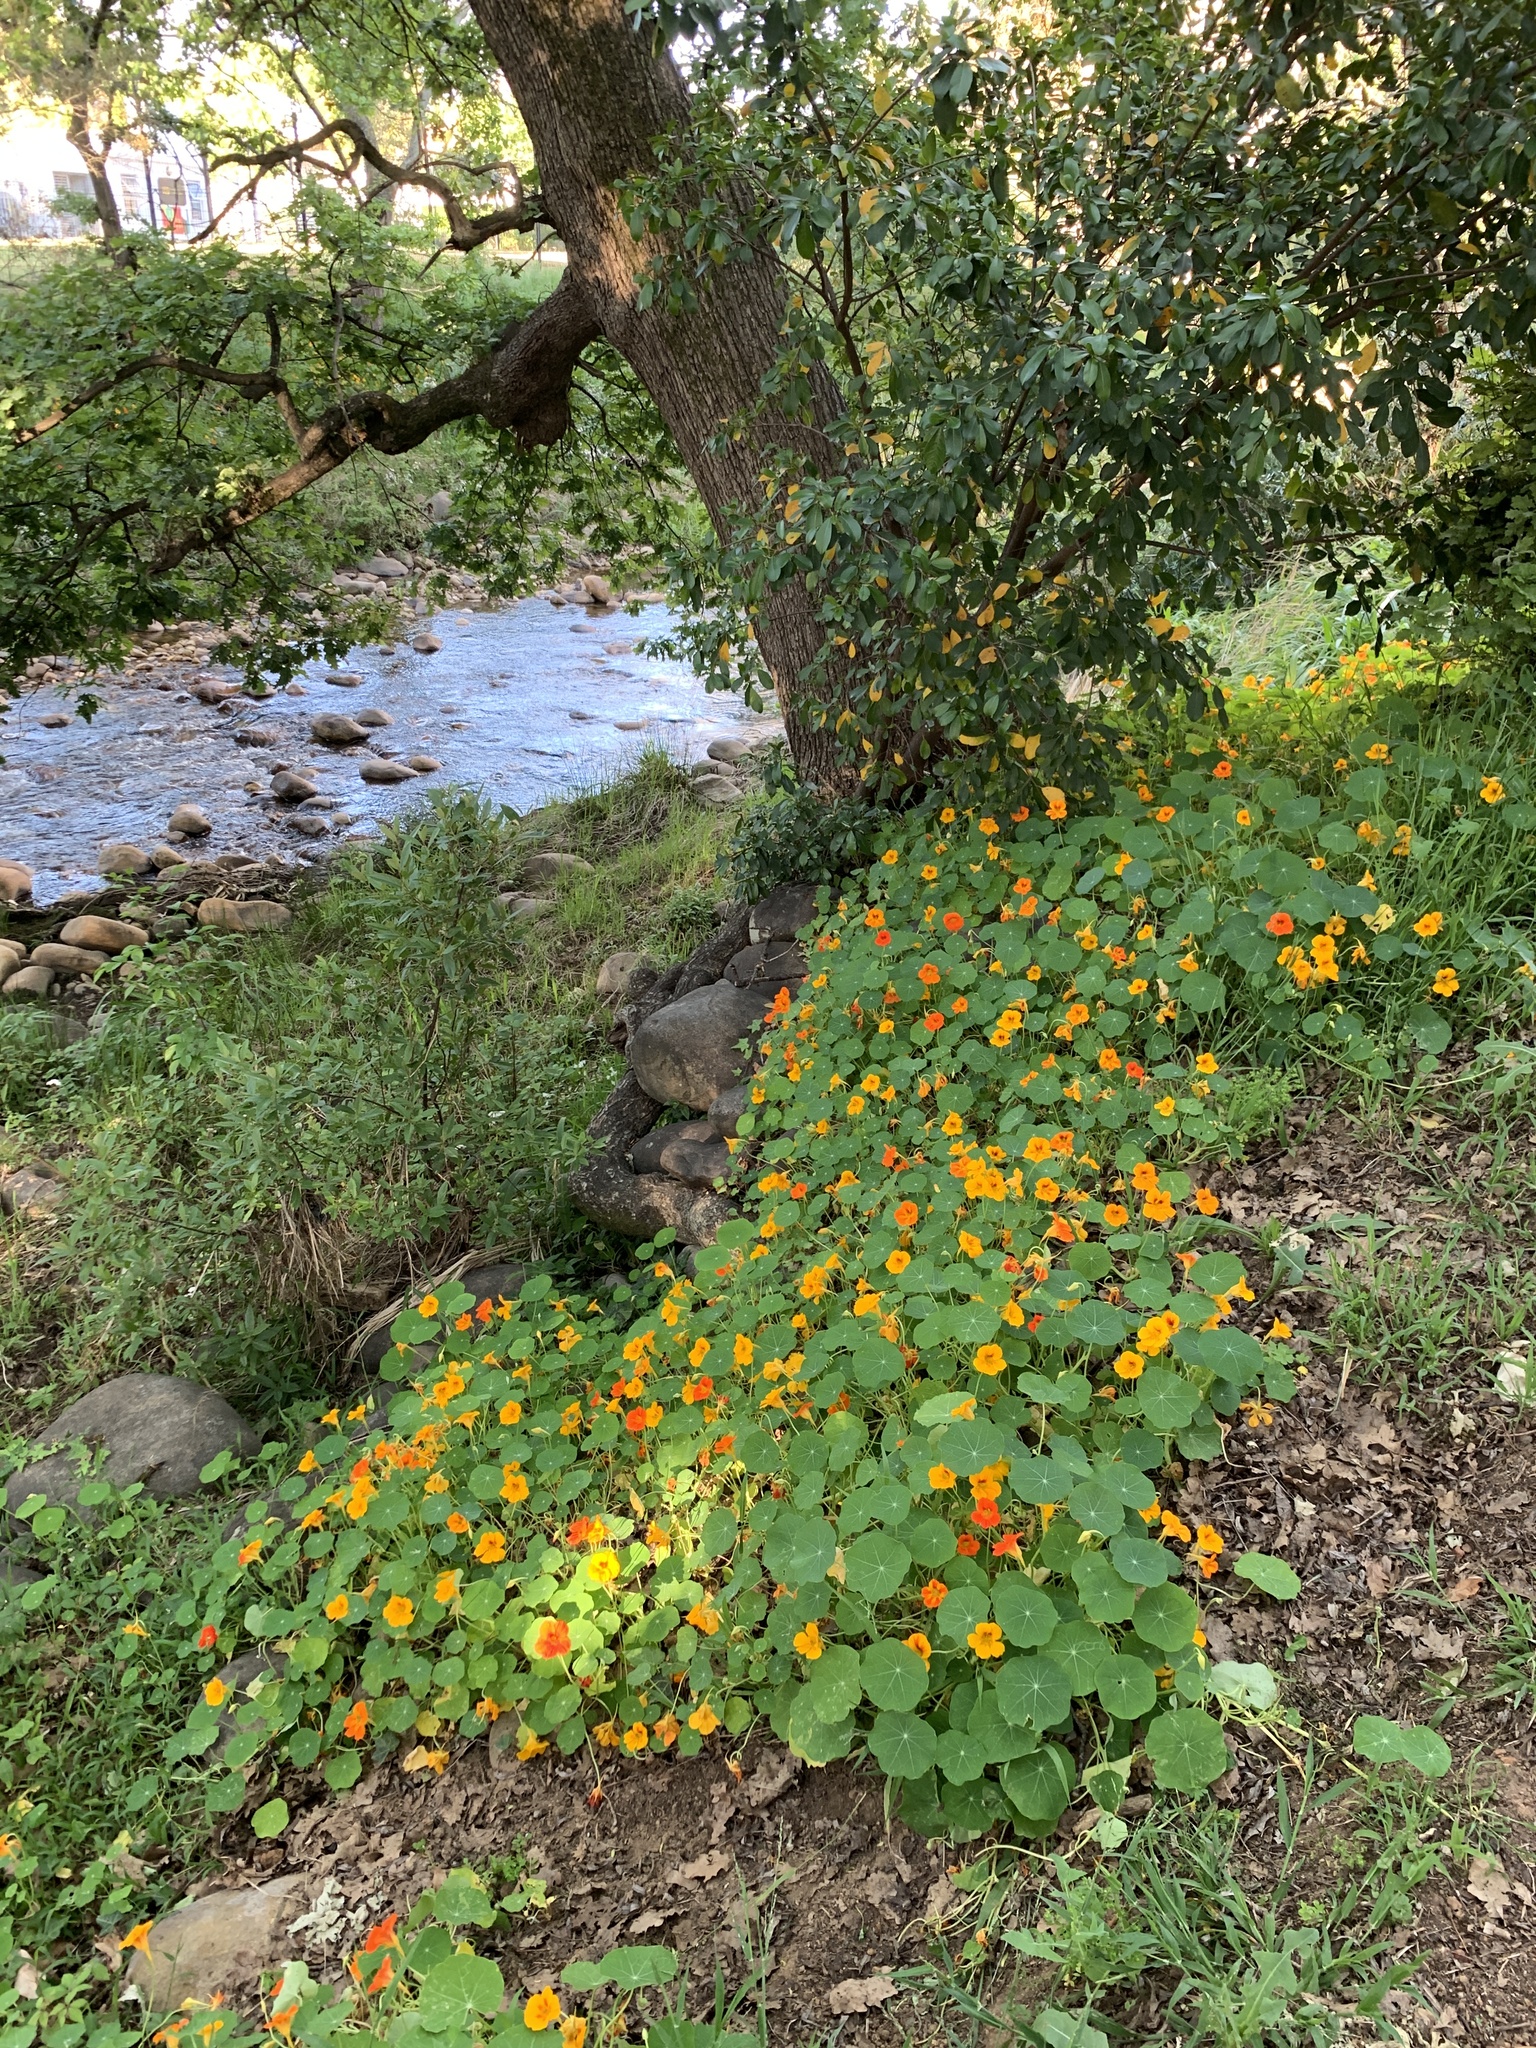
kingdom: Plantae
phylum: Tracheophyta
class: Magnoliopsida
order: Brassicales
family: Tropaeolaceae
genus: Tropaeolum
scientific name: Tropaeolum majus
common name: Nasturtium
